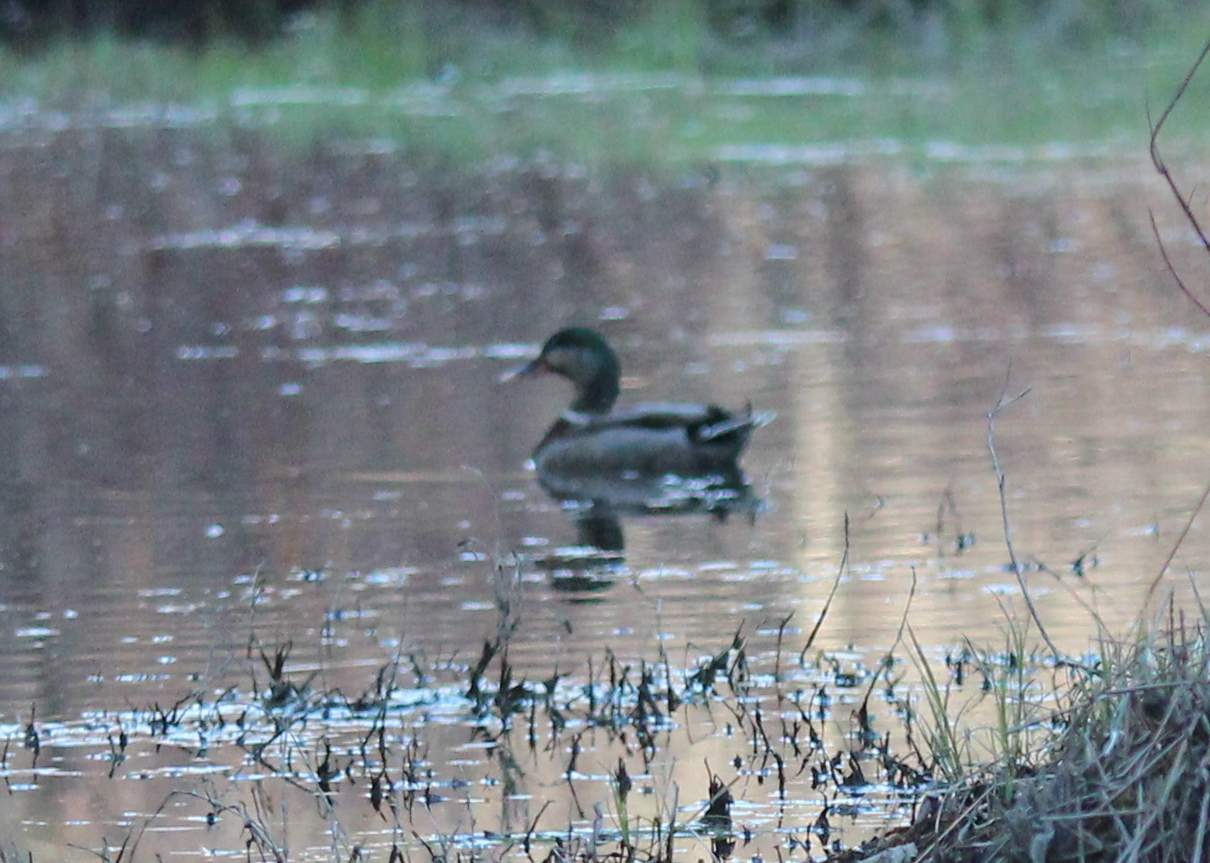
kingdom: Animalia
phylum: Chordata
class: Aves
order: Anseriformes
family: Anatidae
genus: Anas
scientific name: Anas platyrhynchos
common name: Mallard
